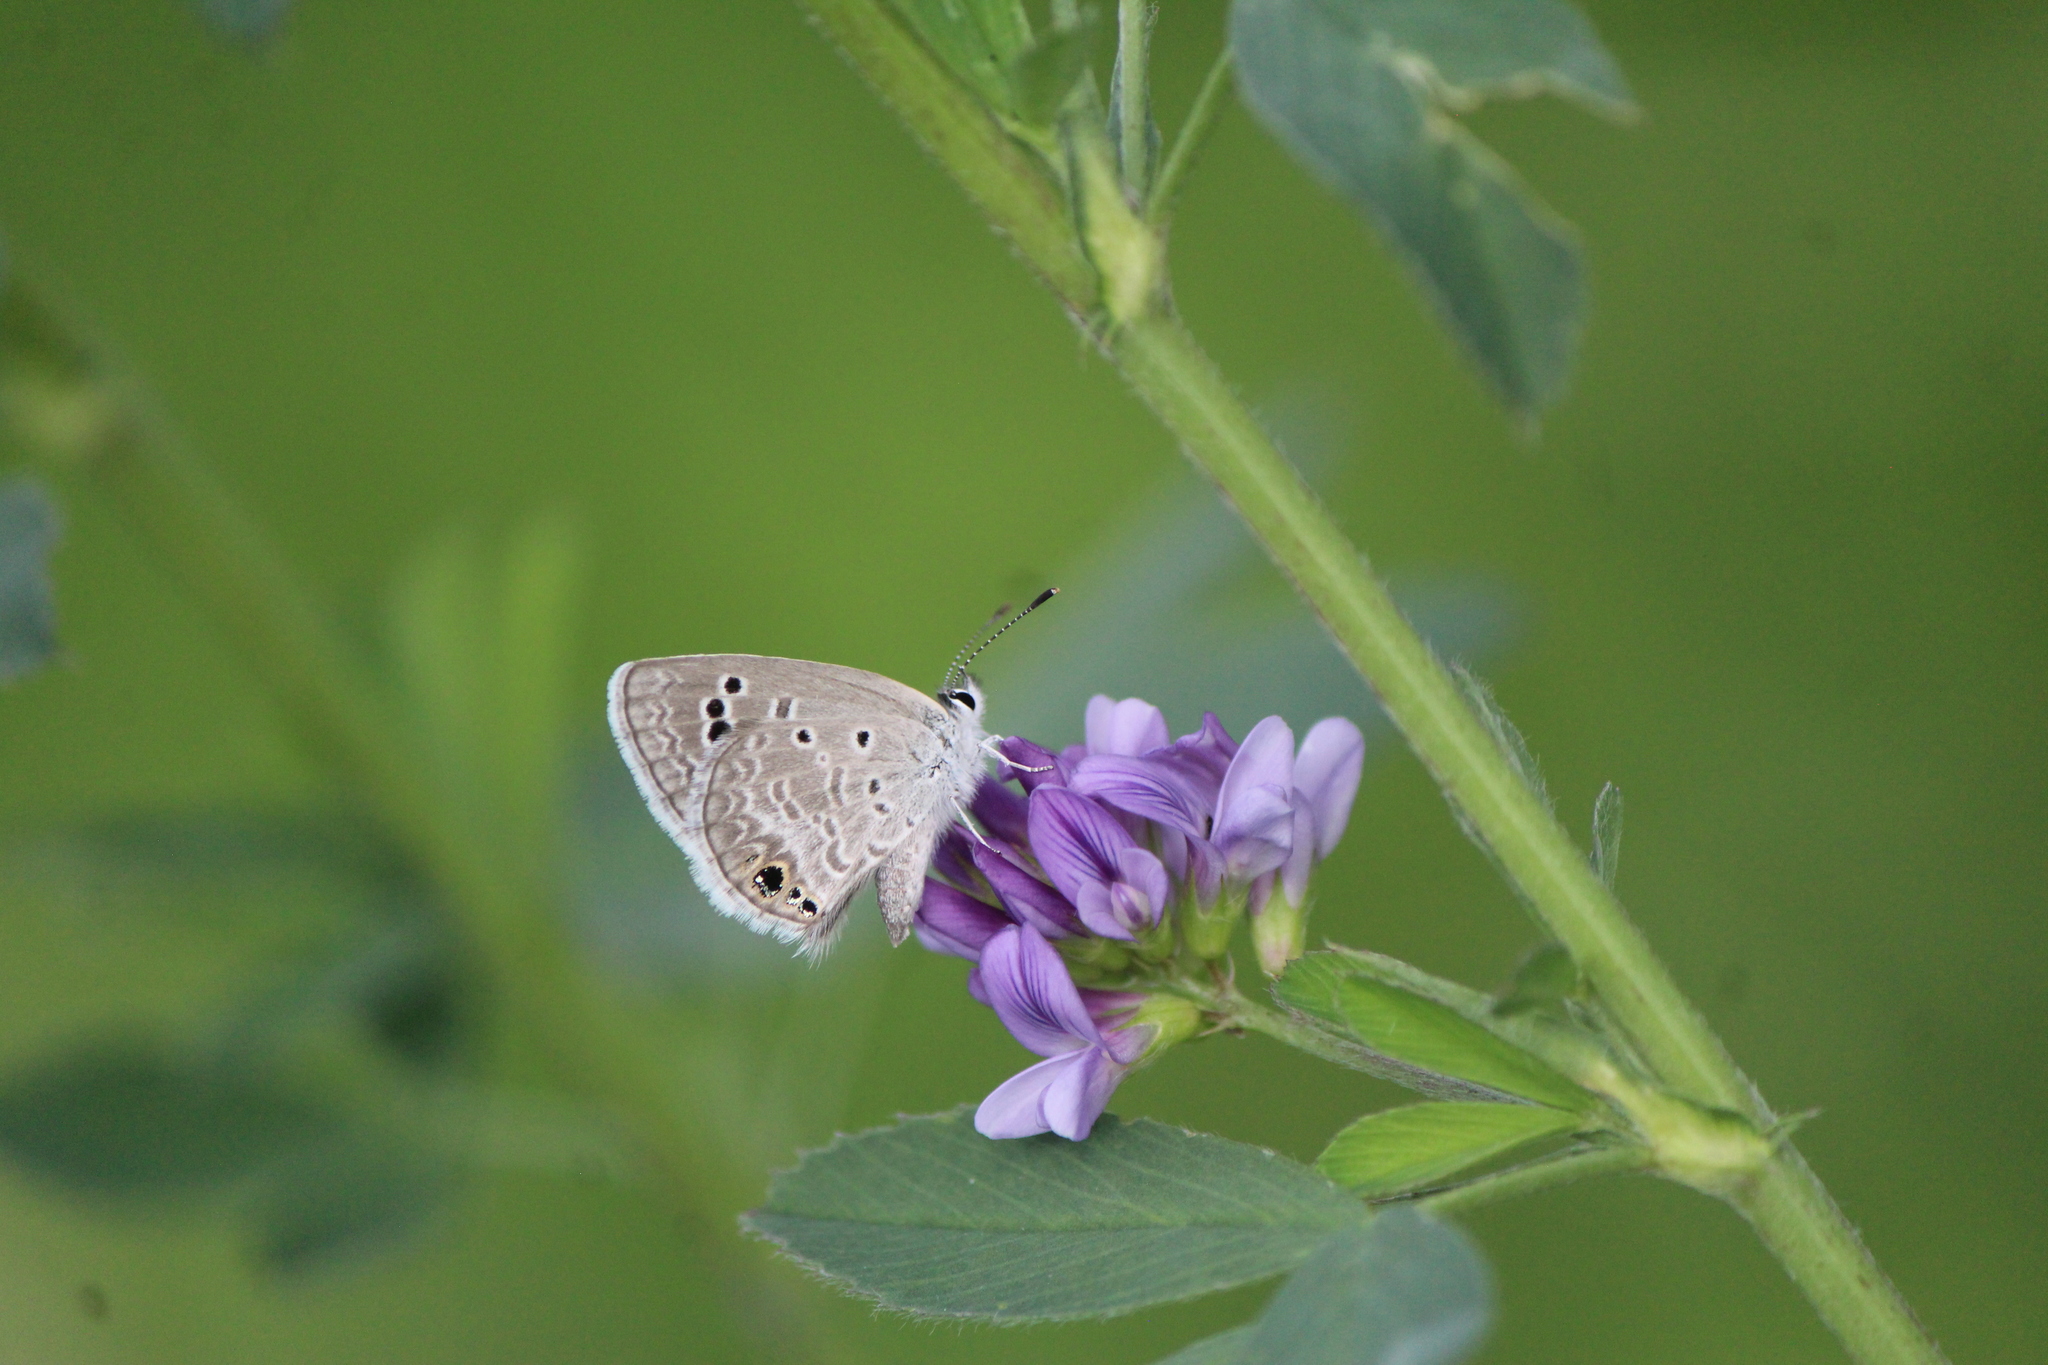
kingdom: Animalia
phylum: Arthropoda
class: Insecta
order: Lepidoptera
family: Lycaenidae
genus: Echinargus
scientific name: Echinargus isola
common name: Reakirt's blue
